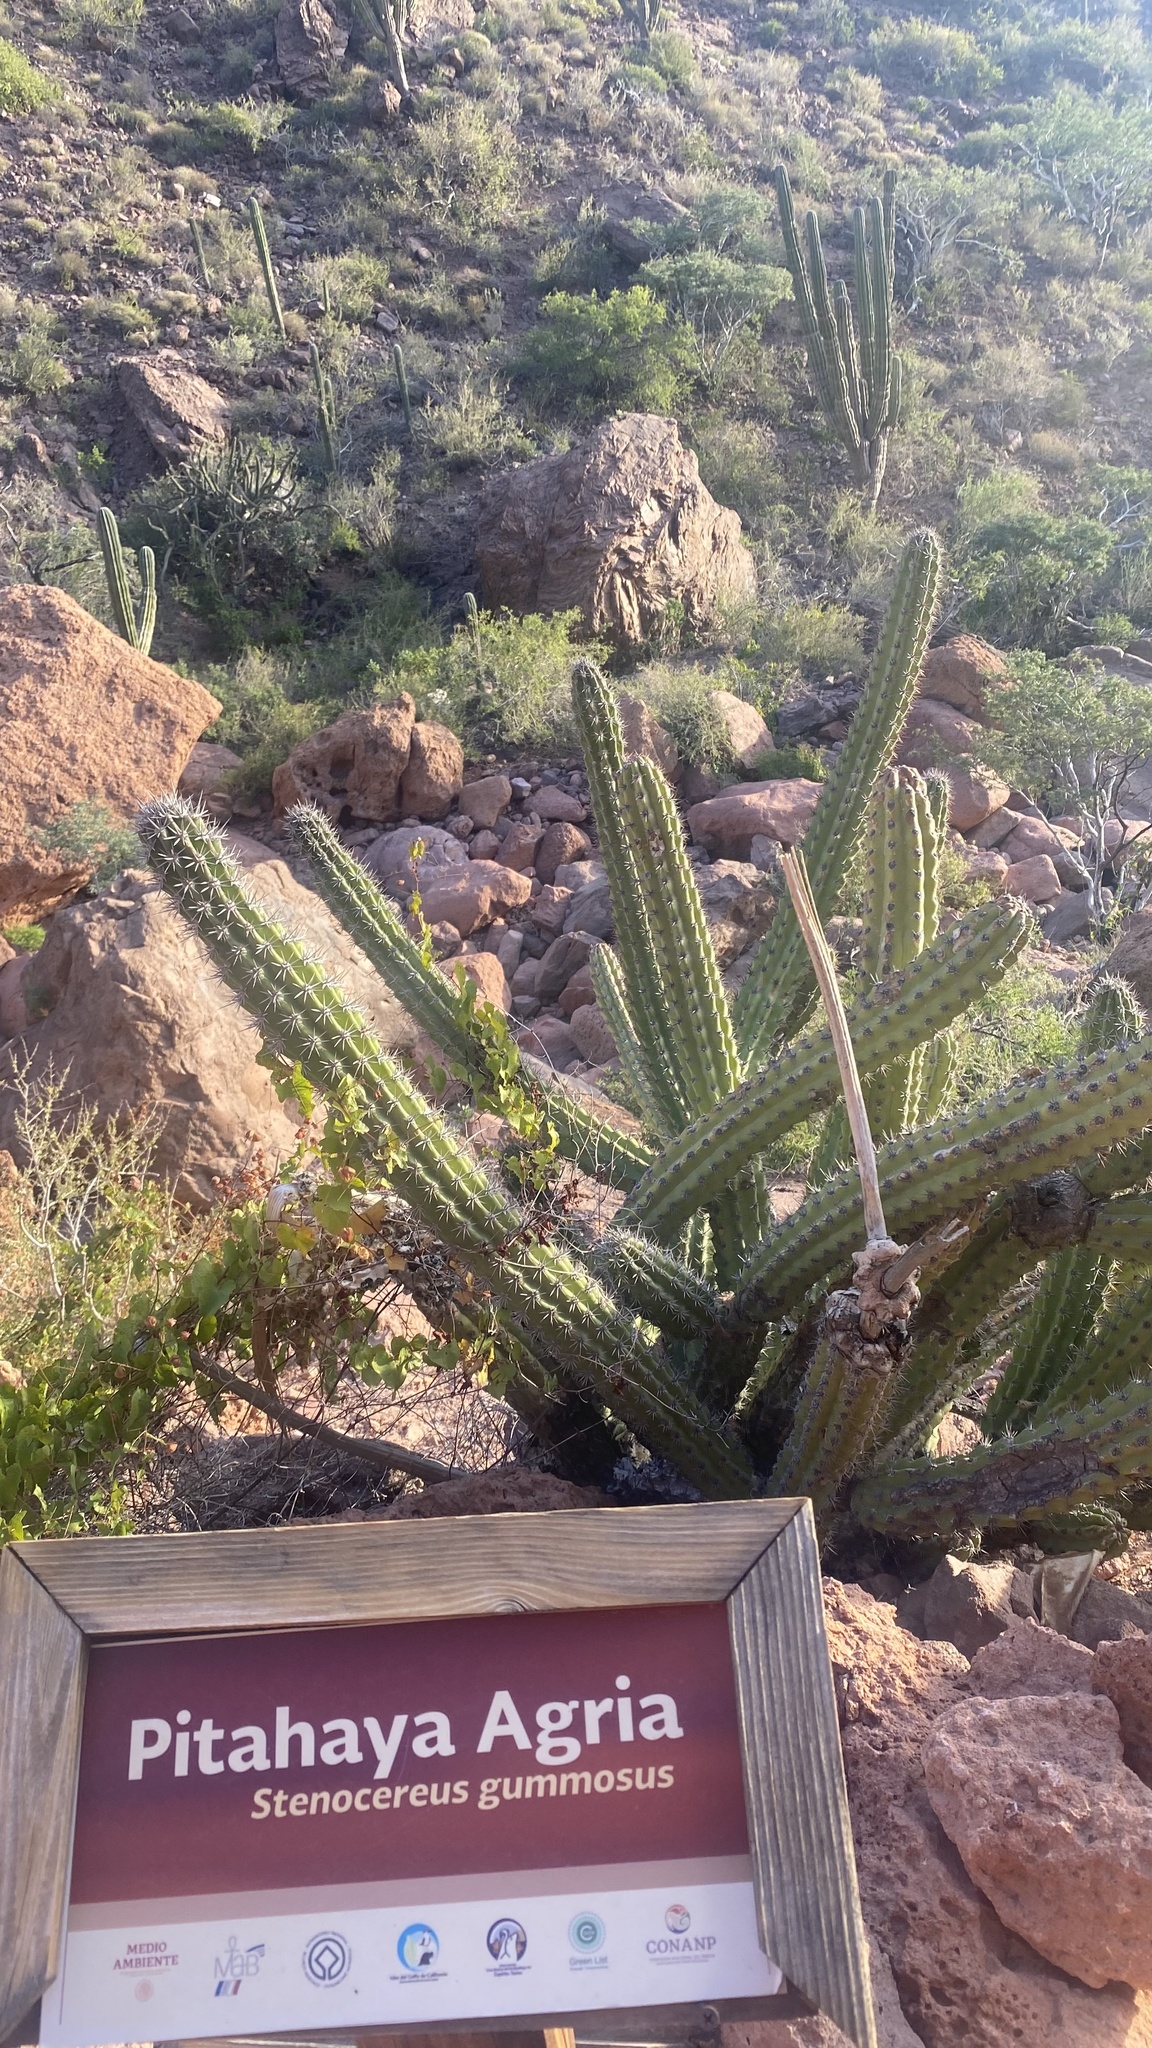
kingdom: Plantae
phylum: Tracheophyta
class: Magnoliopsida
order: Caryophyllales
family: Cactaceae
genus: Stenocereus
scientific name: Stenocereus gummosus
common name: Dagger cactus
